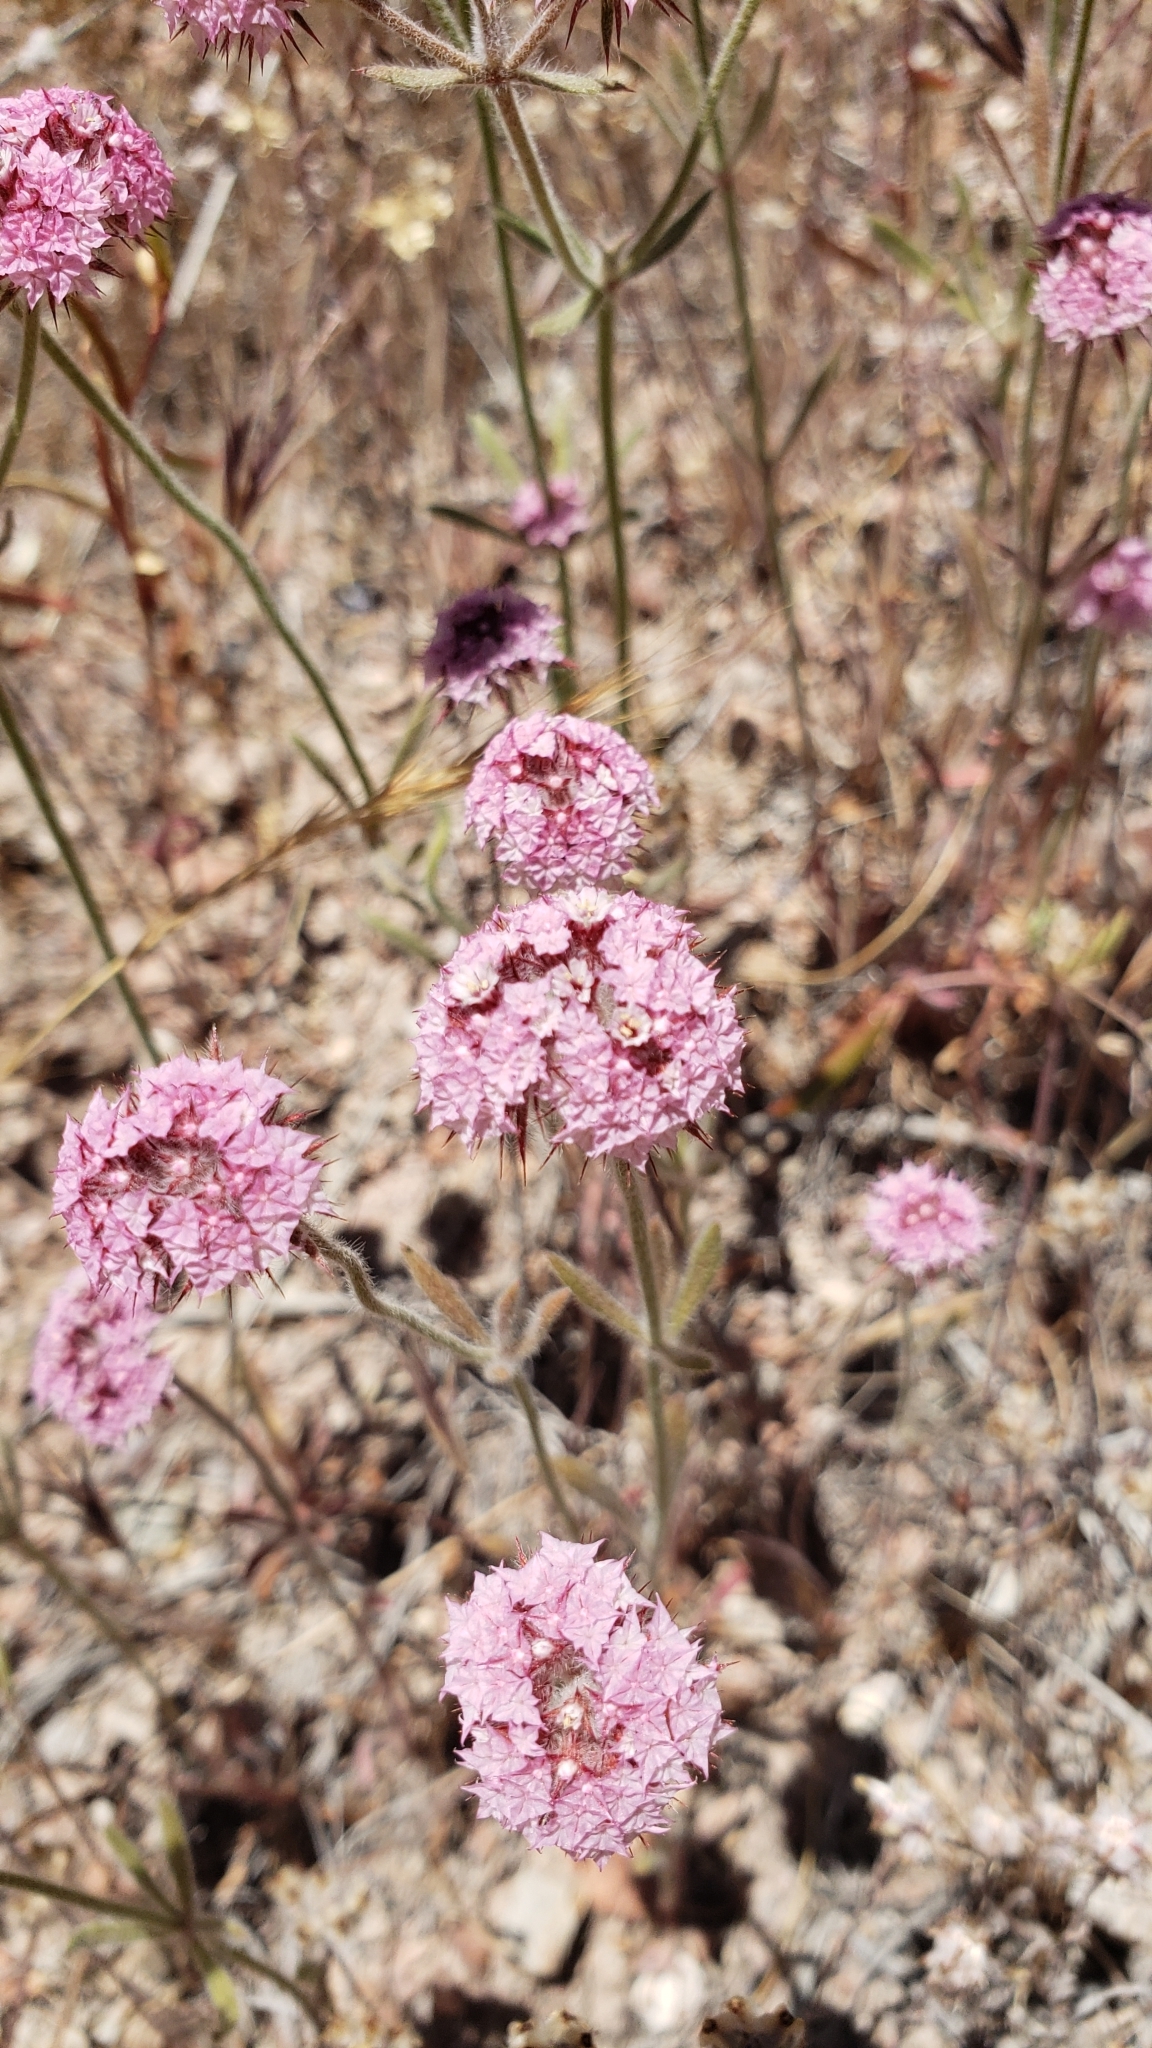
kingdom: Plantae
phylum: Tracheophyta
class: Magnoliopsida
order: Caryophyllales
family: Polygonaceae
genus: Chorizanthe
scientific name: Chorizanthe douglasii
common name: Douglas's spineflower
